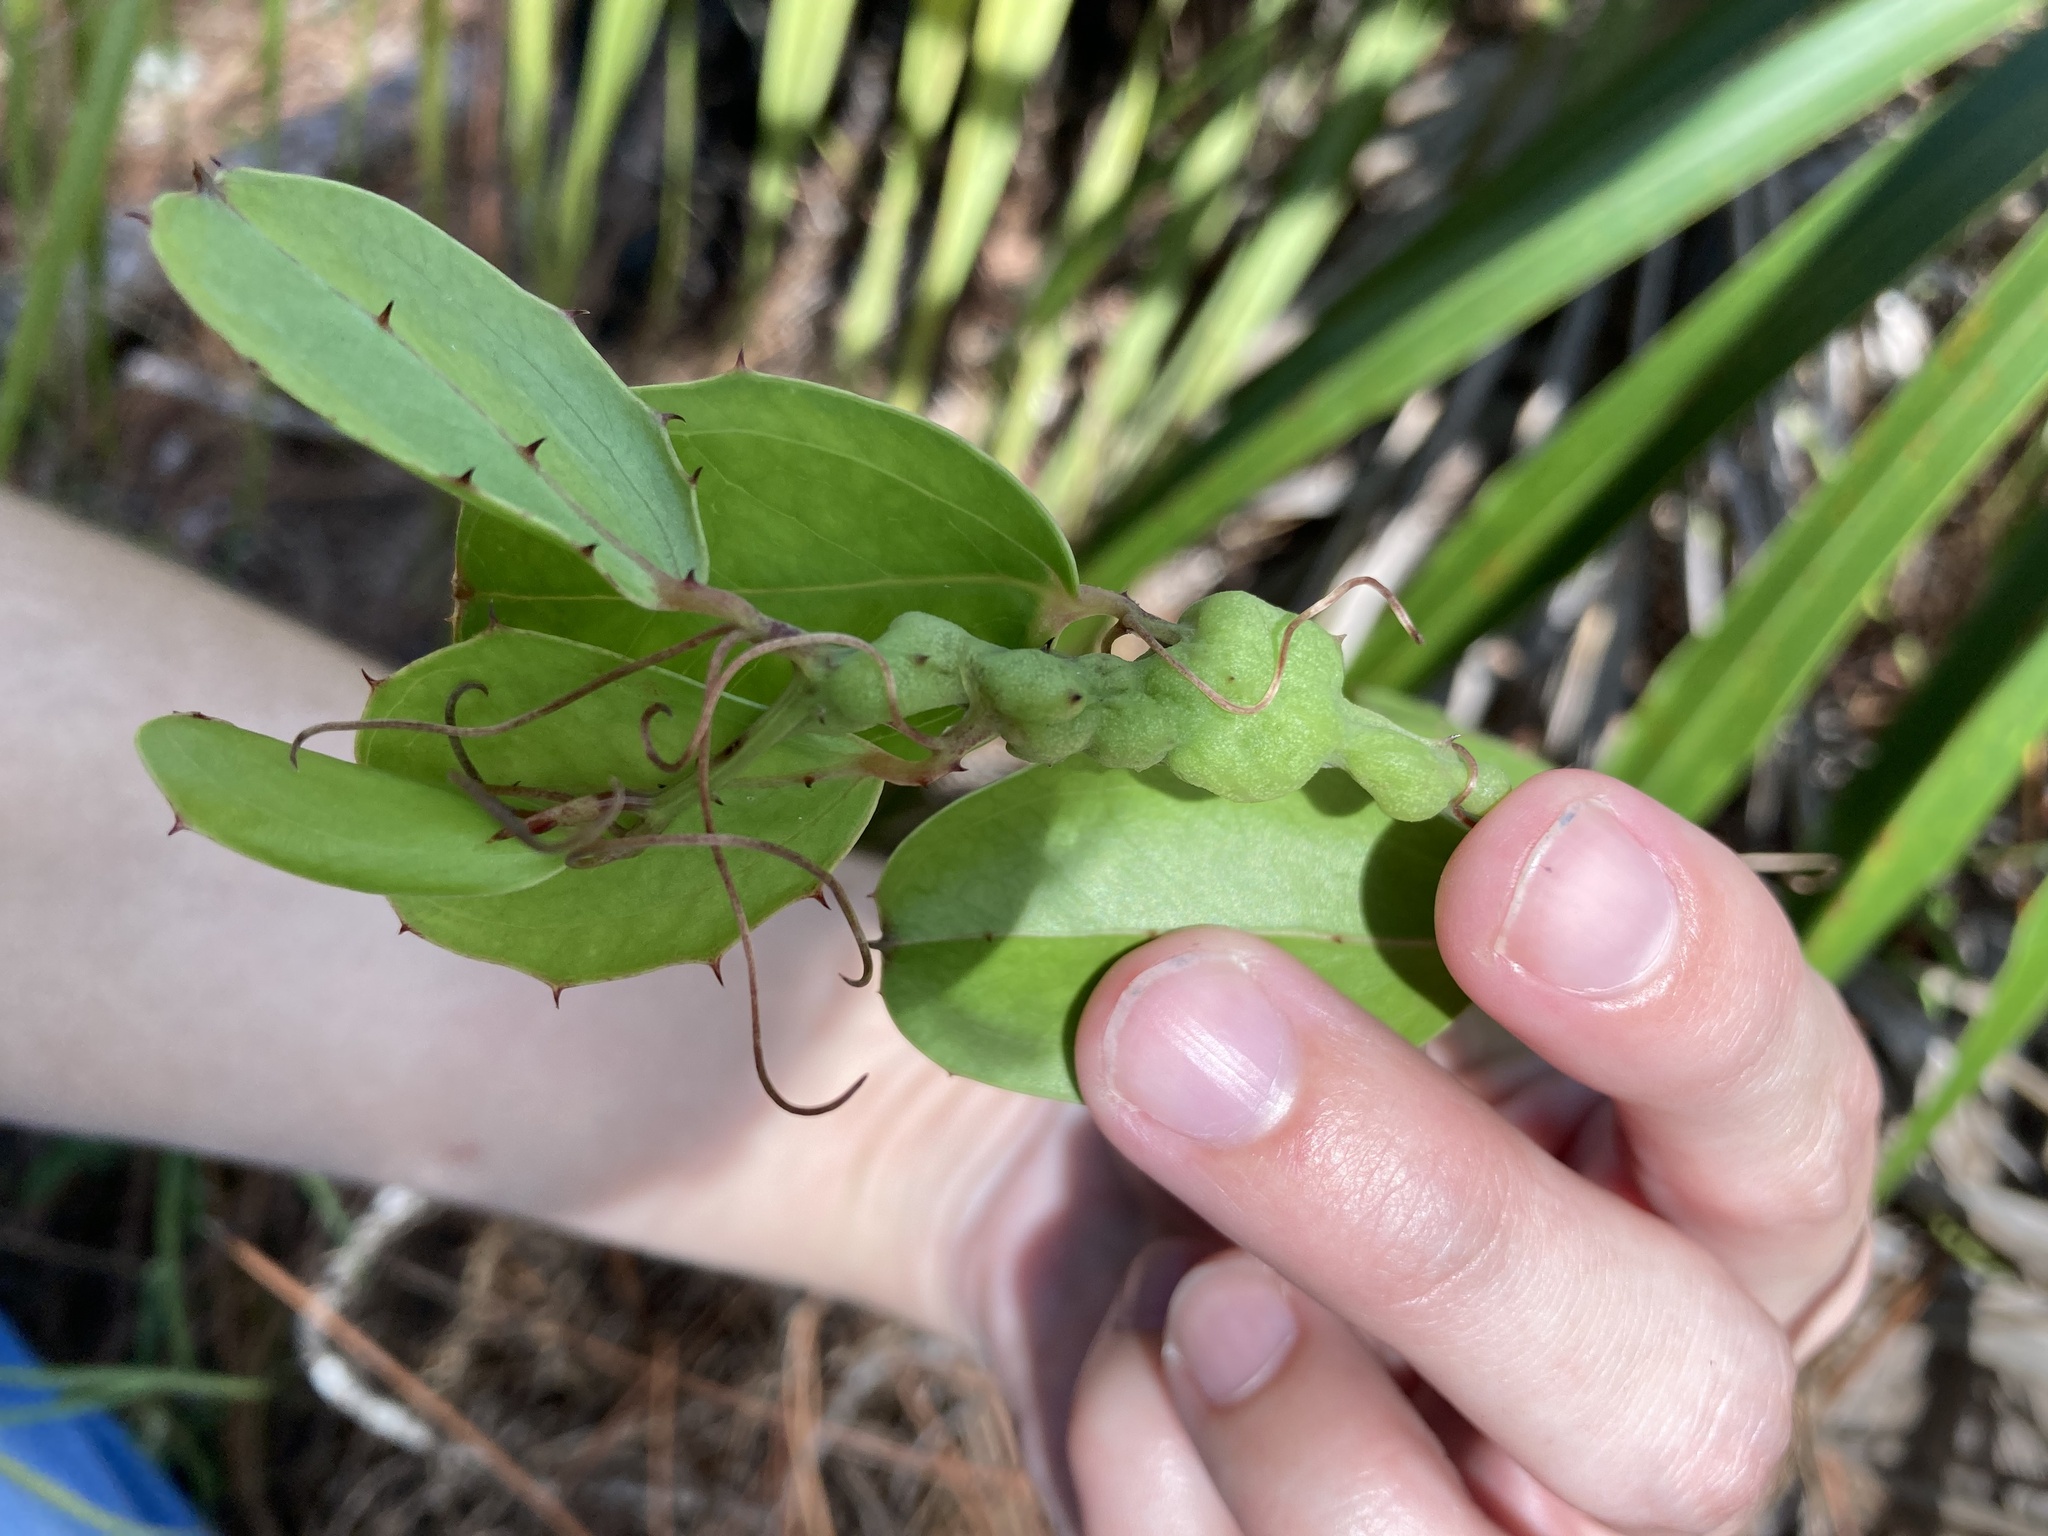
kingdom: Plantae
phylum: Tracheophyta
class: Liliopsida
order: Liliales
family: Smilacaceae
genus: Smilax
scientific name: Smilax havanensis
